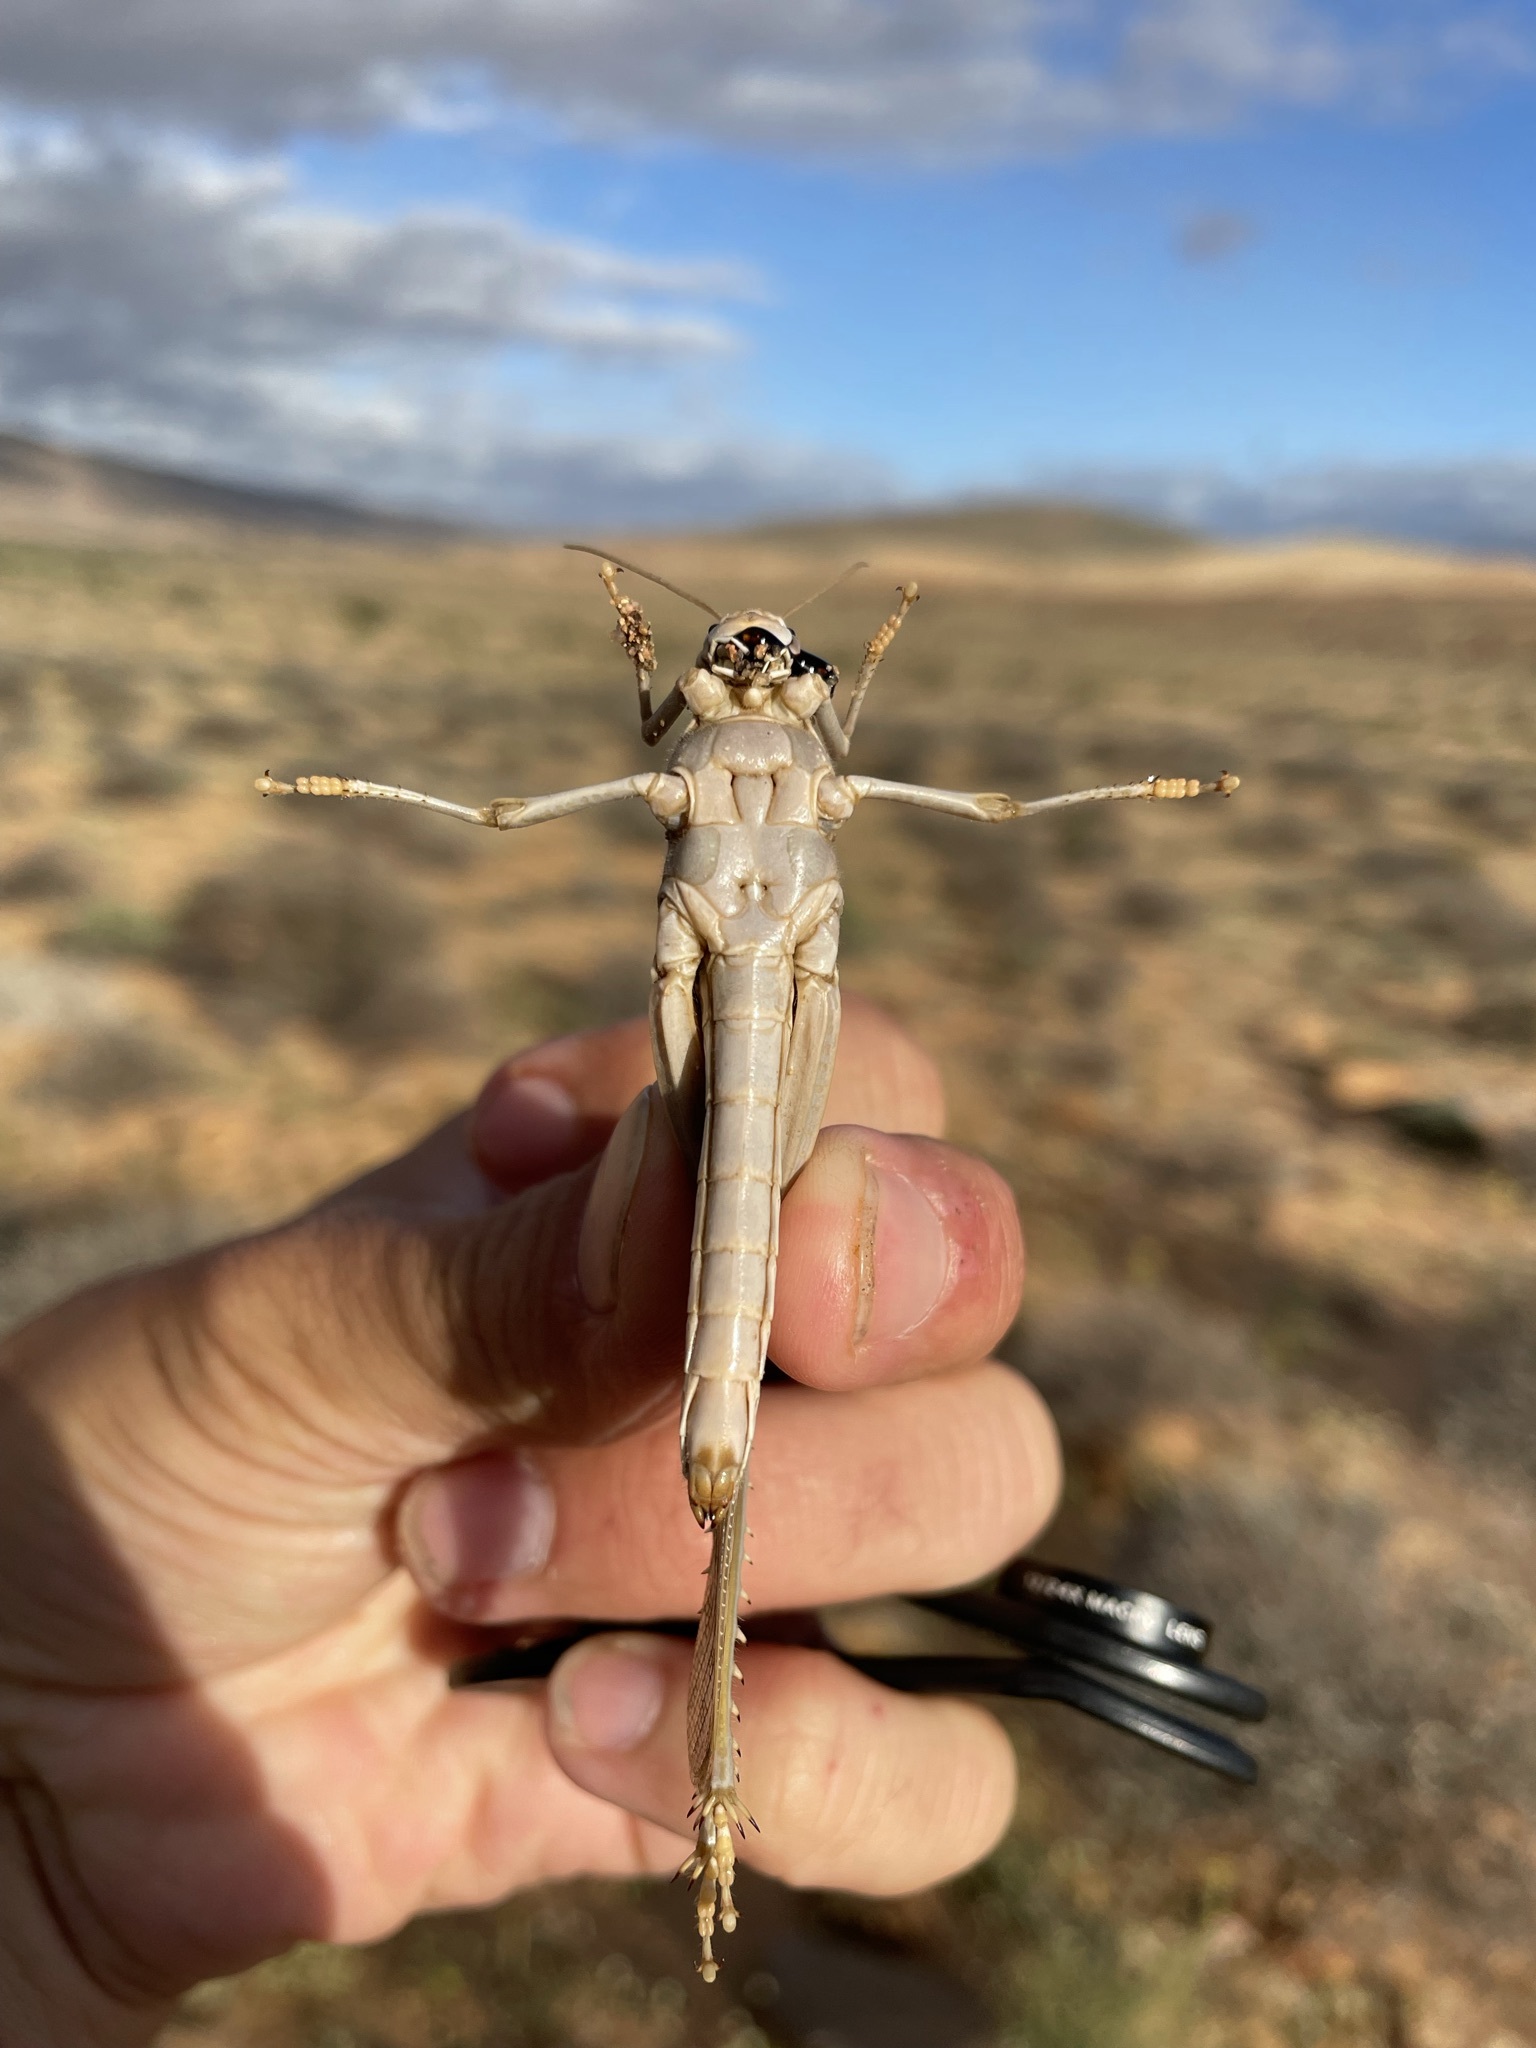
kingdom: Animalia
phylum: Arthropoda
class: Insecta
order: Orthoptera
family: Acrididae
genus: Schistocerca
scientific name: Schistocerca gregaria
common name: Desert locust
